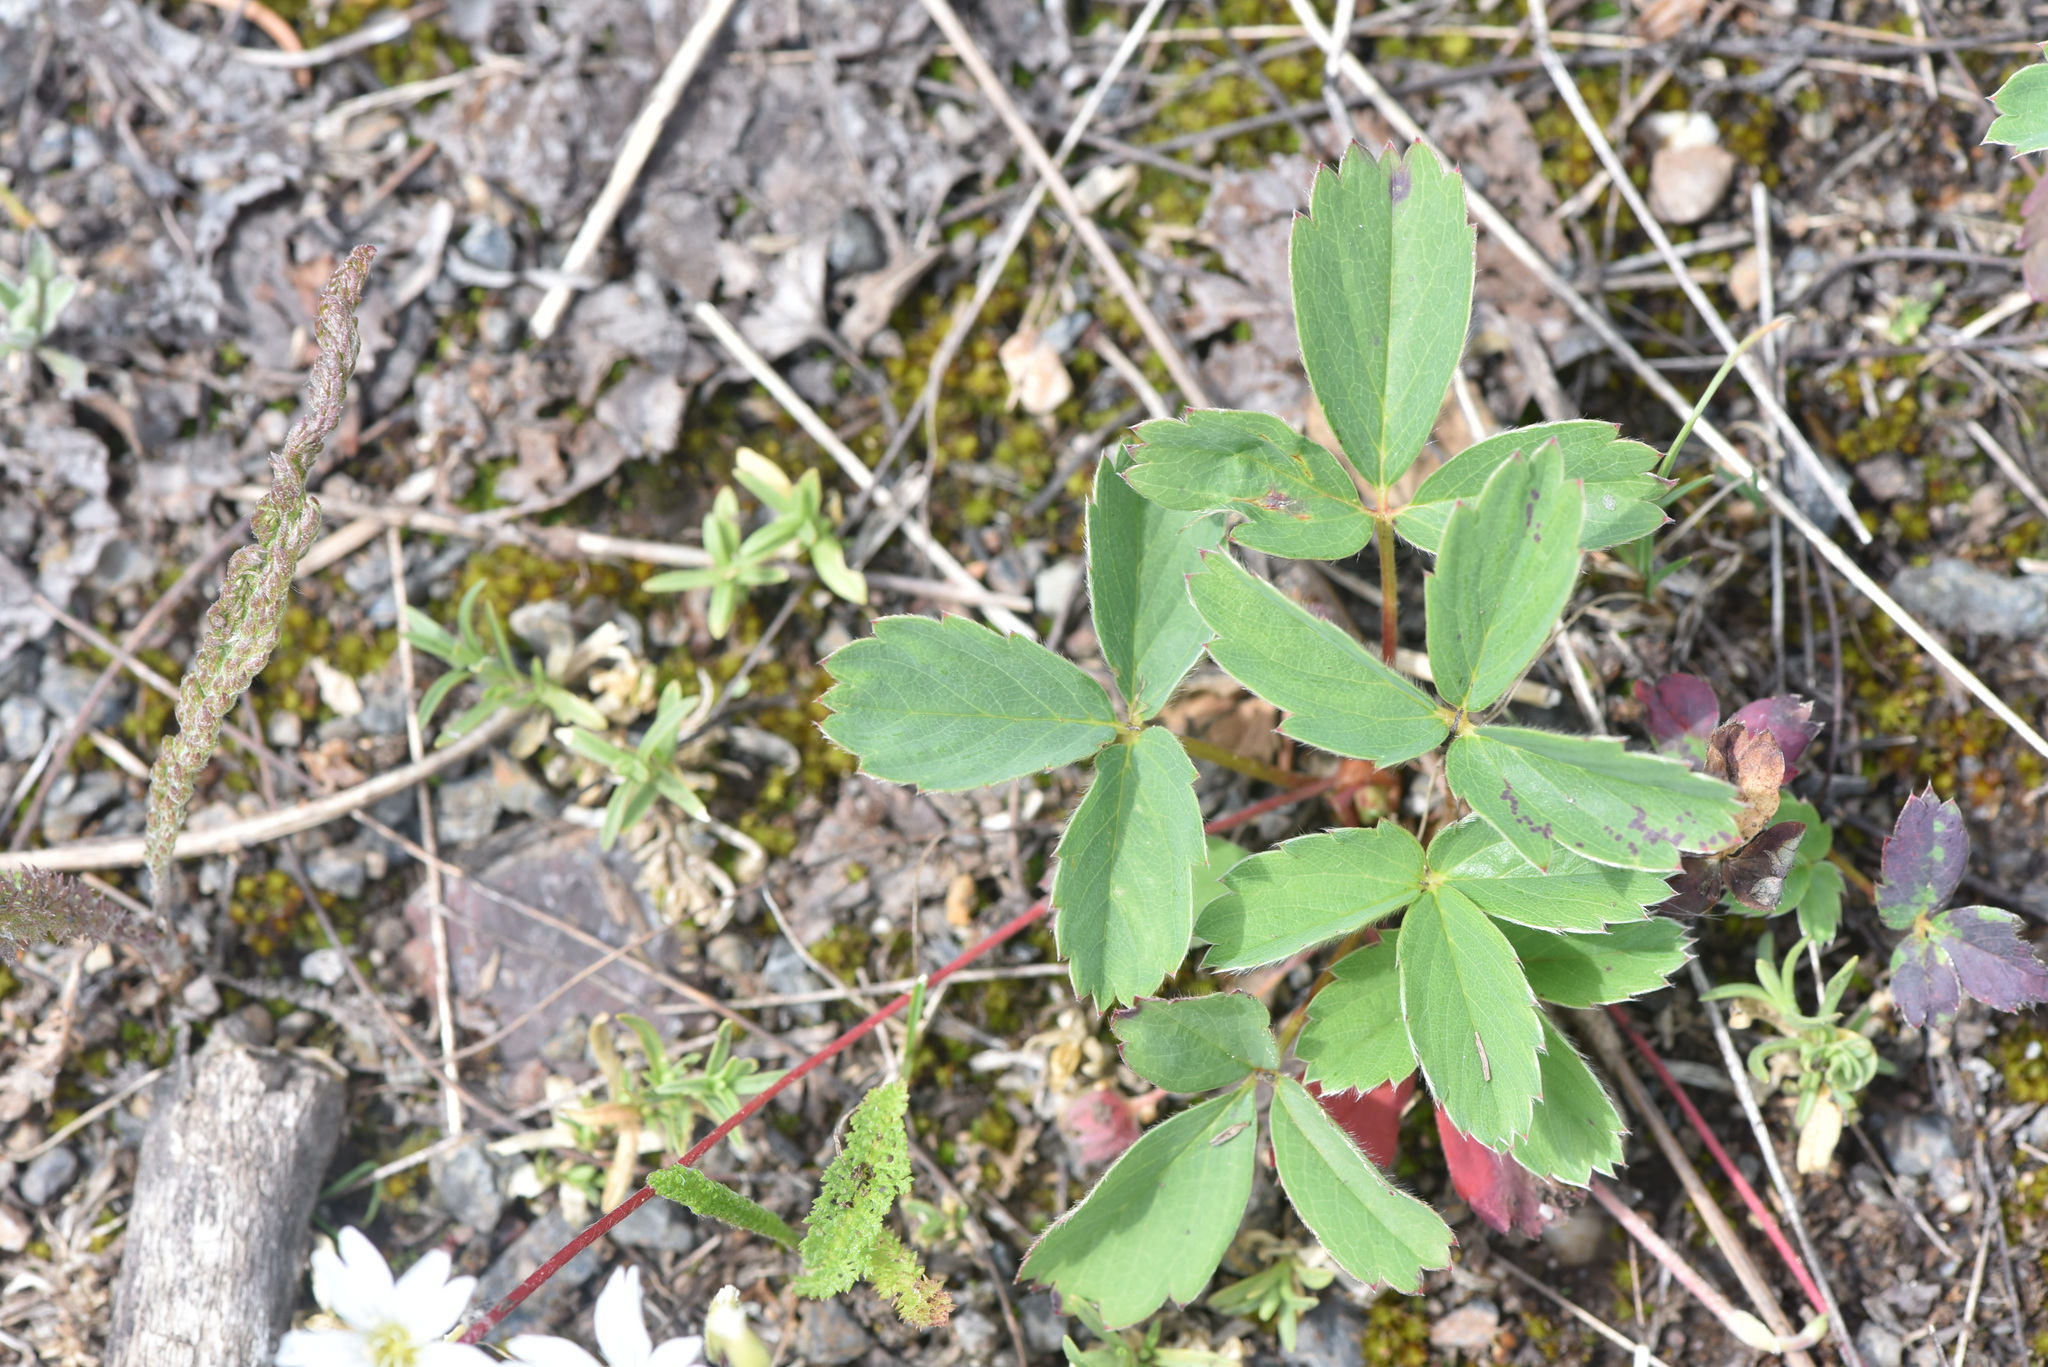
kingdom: Plantae
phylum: Tracheophyta
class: Magnoliopsida
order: Rosales
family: Rosaceae
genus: Fragaria
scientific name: Fragaria virginiana
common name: Thickleaved wild strawberry
